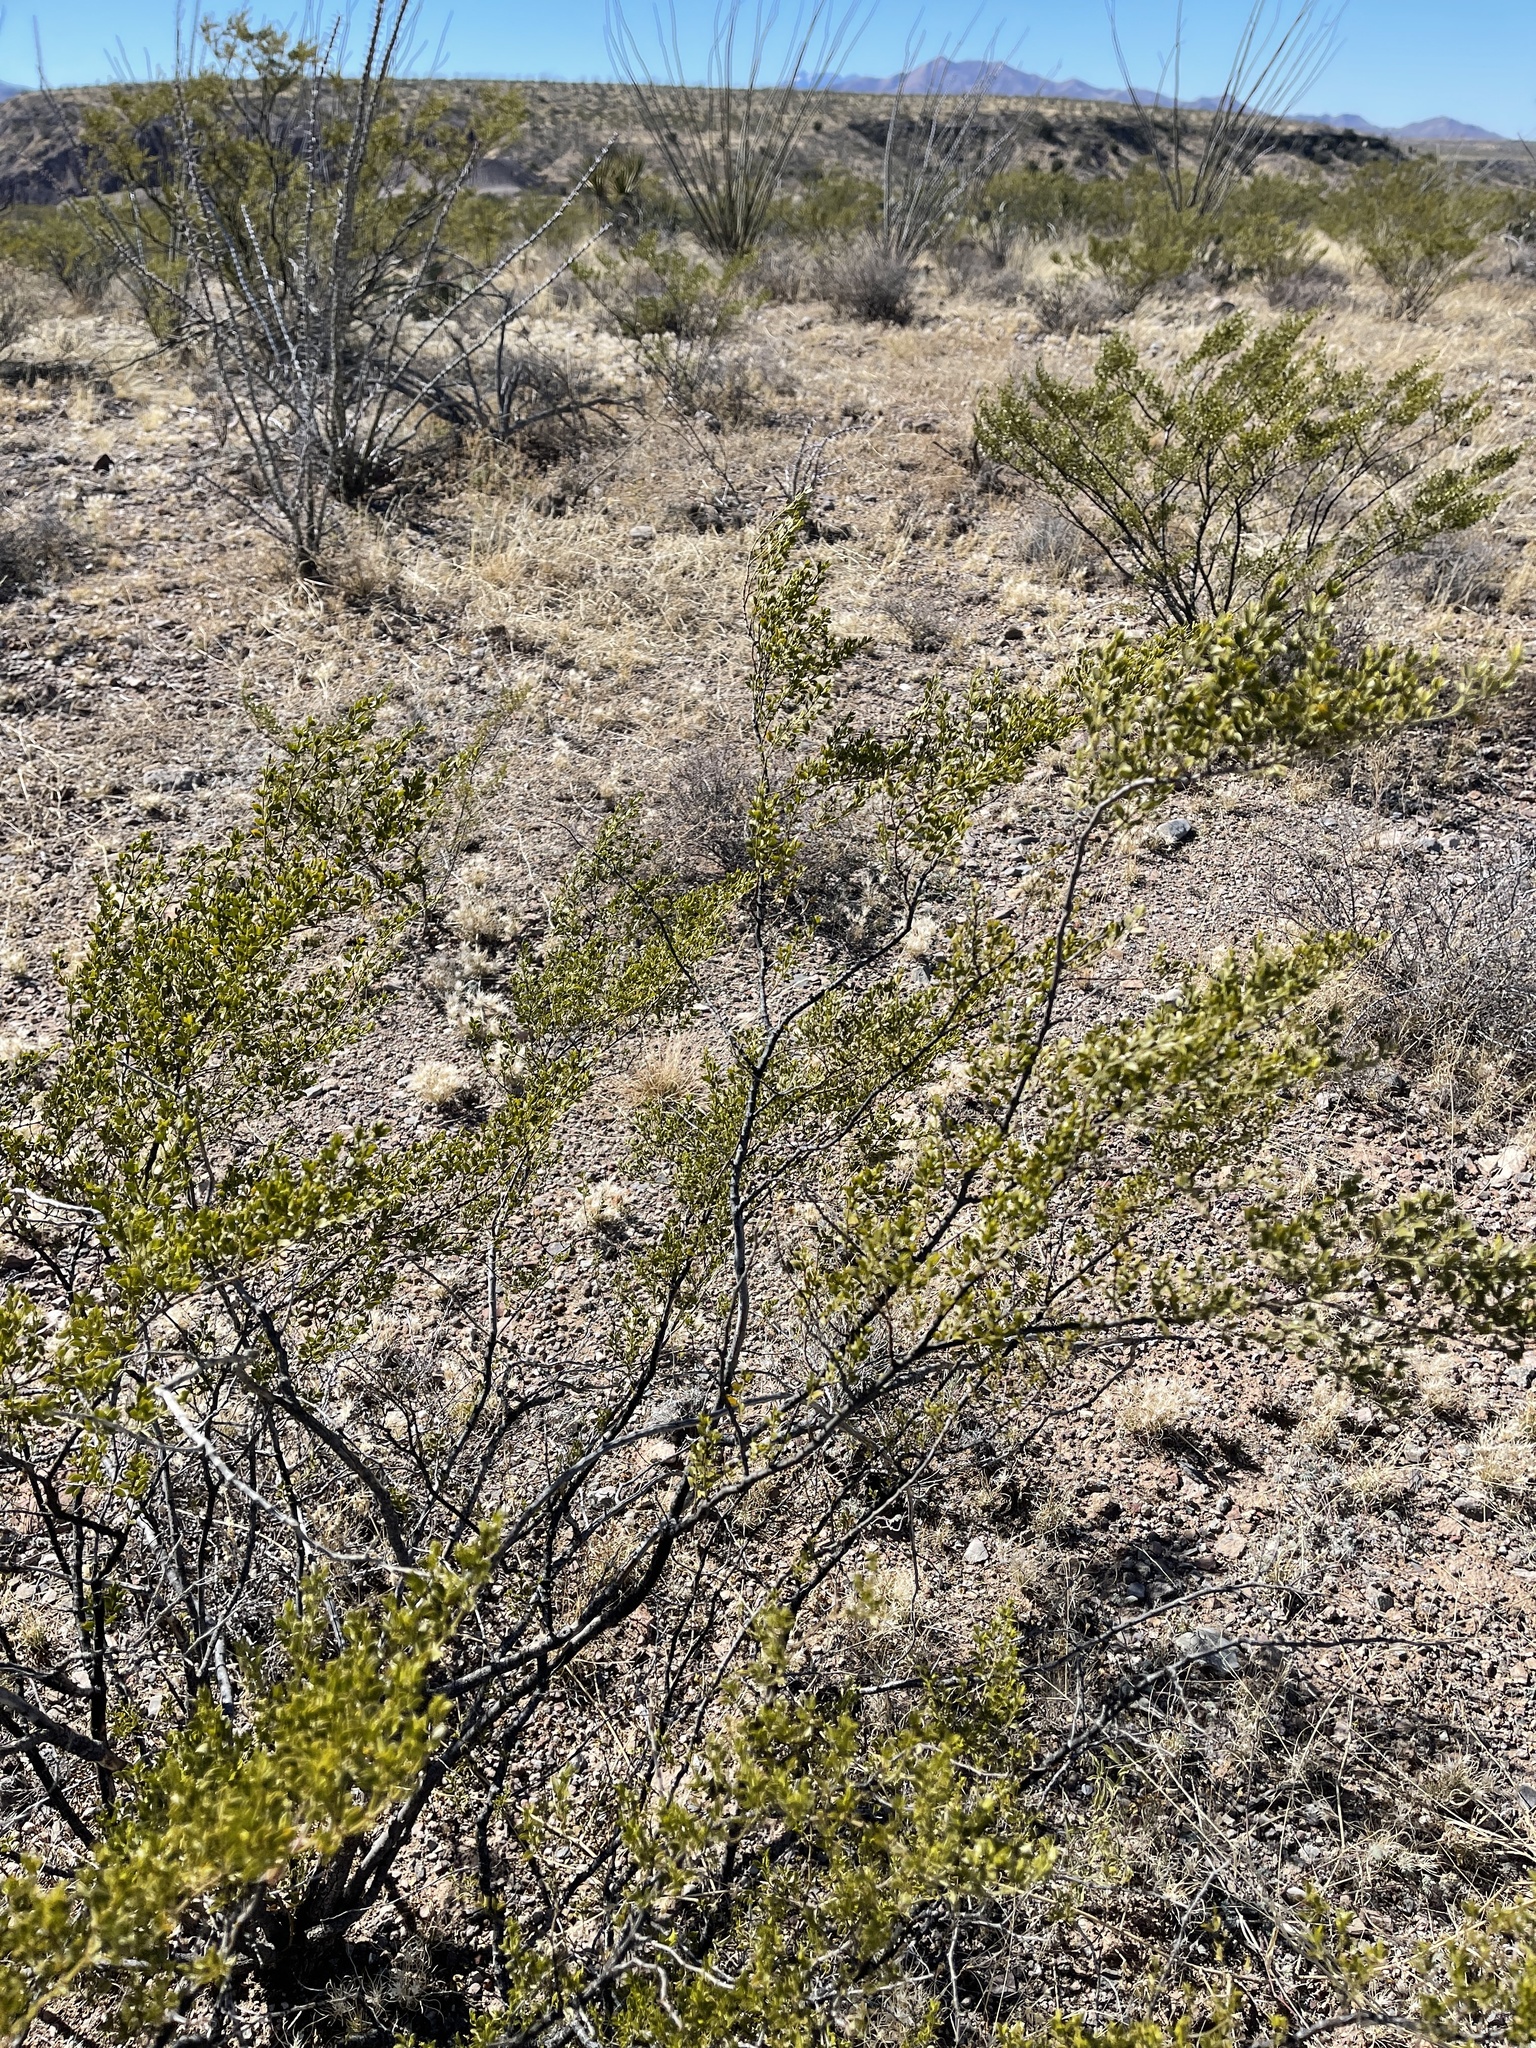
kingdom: Plantae
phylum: Tracheophyta
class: Magnoliopsida
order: Zygophyllales
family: Zygophyllaceae
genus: Larrea
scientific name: Larrea tridentata
